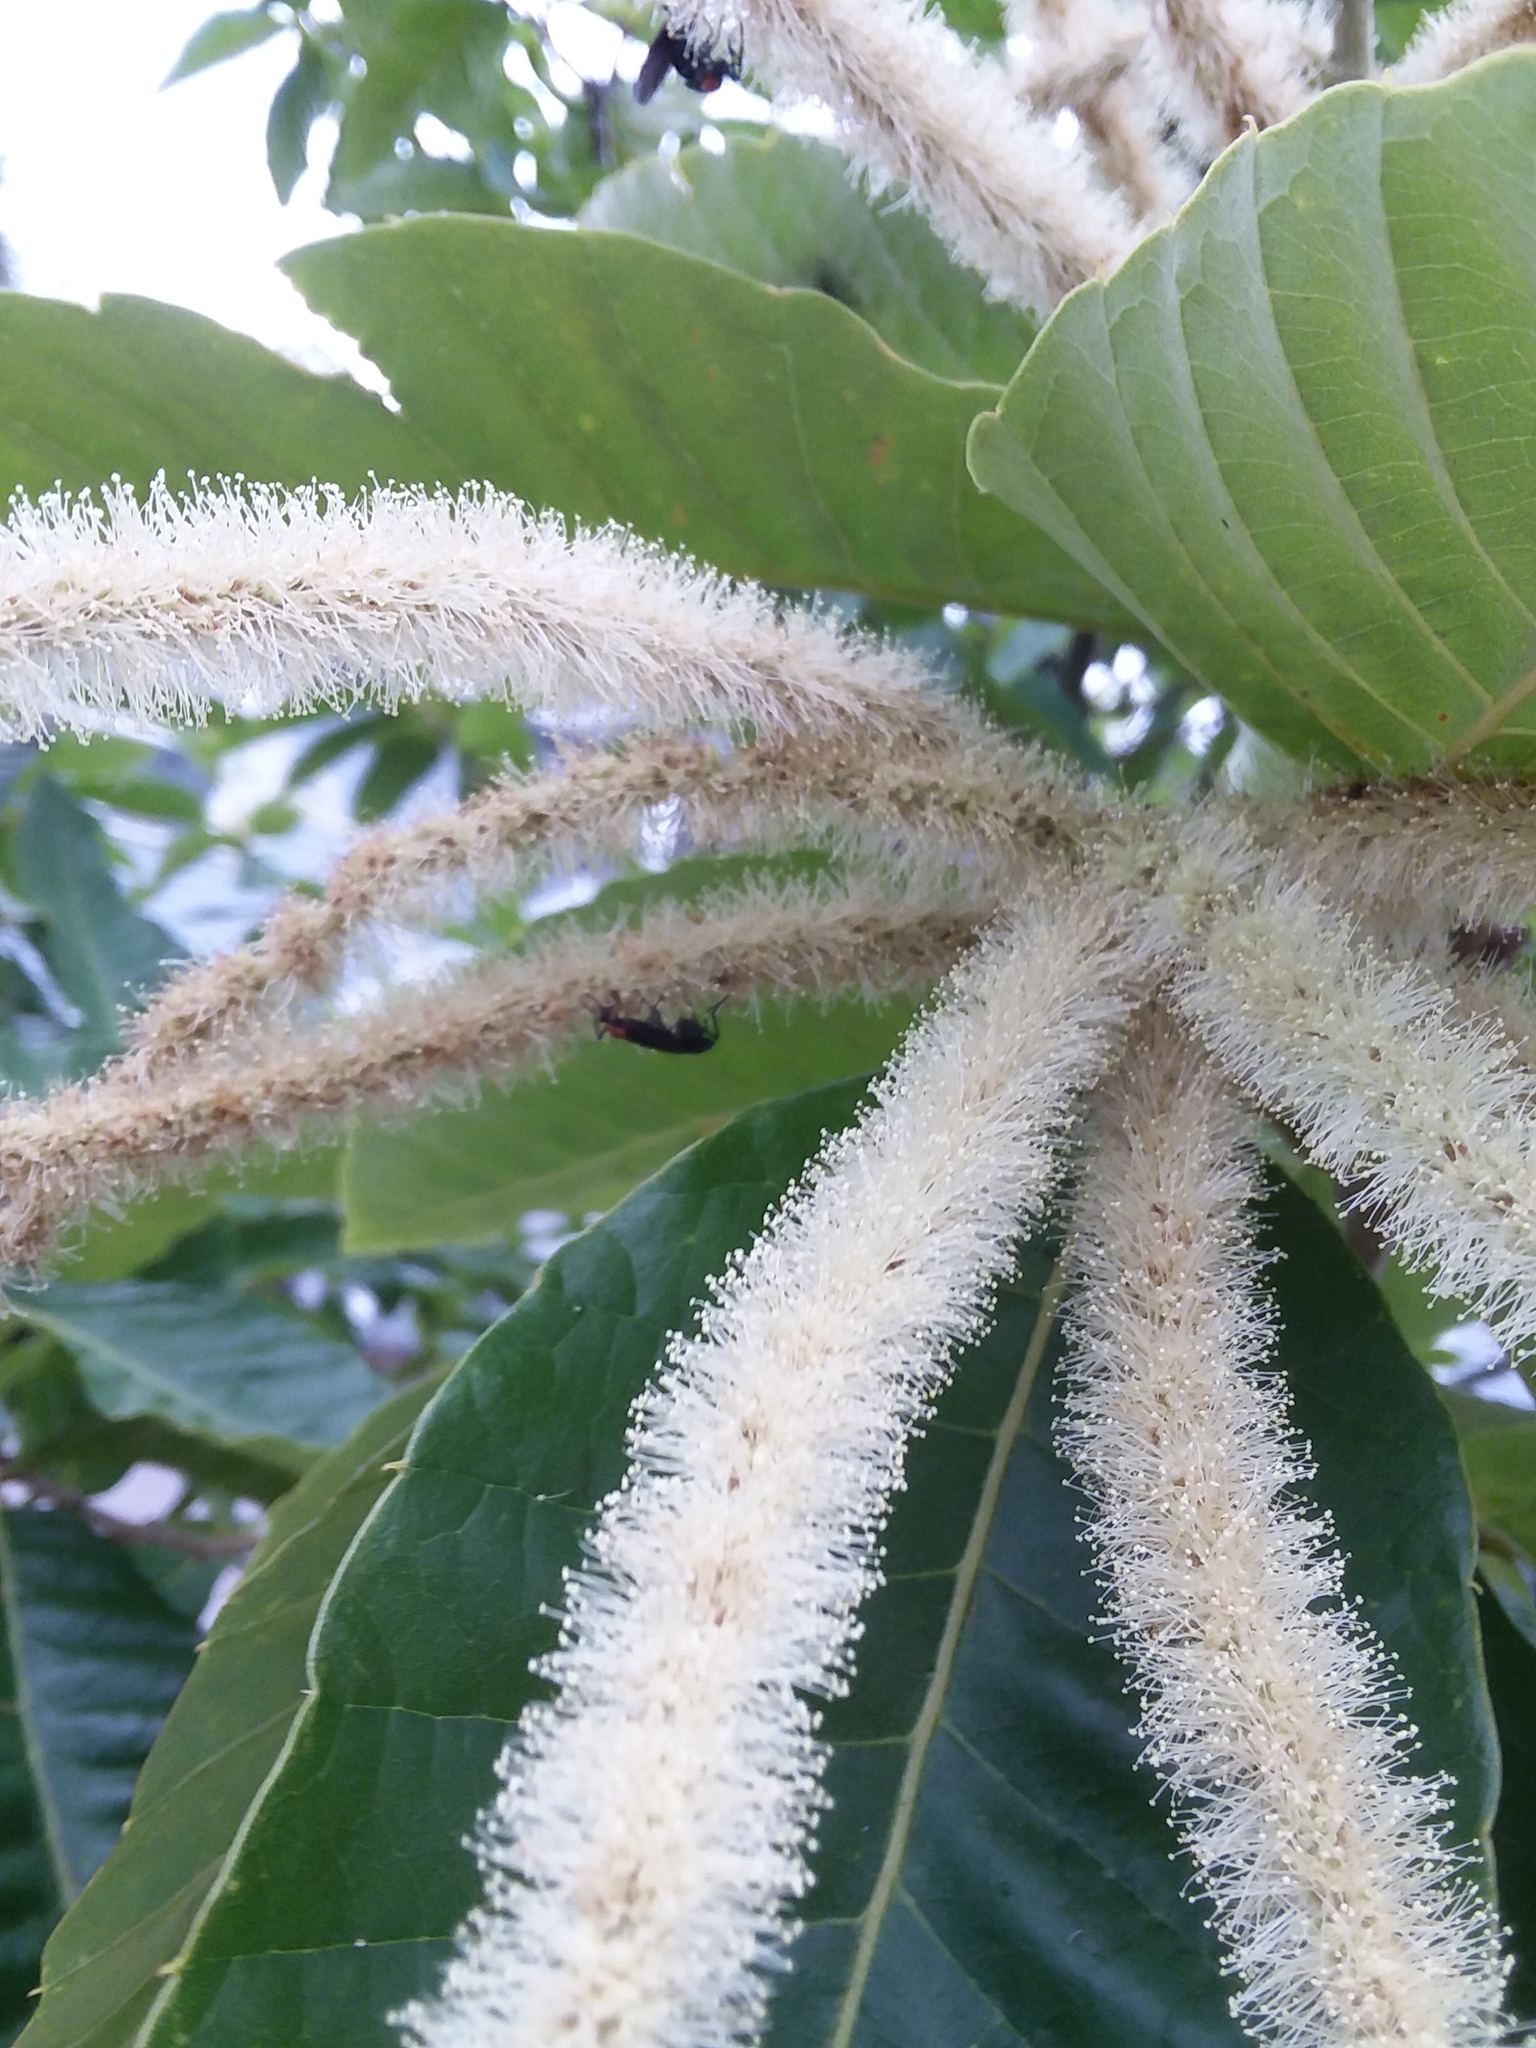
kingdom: Animalia
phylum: Arthropoda
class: Insecta
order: Diptera
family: Bibionidae
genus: Plecia
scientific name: Plecia nearctica
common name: March fly
